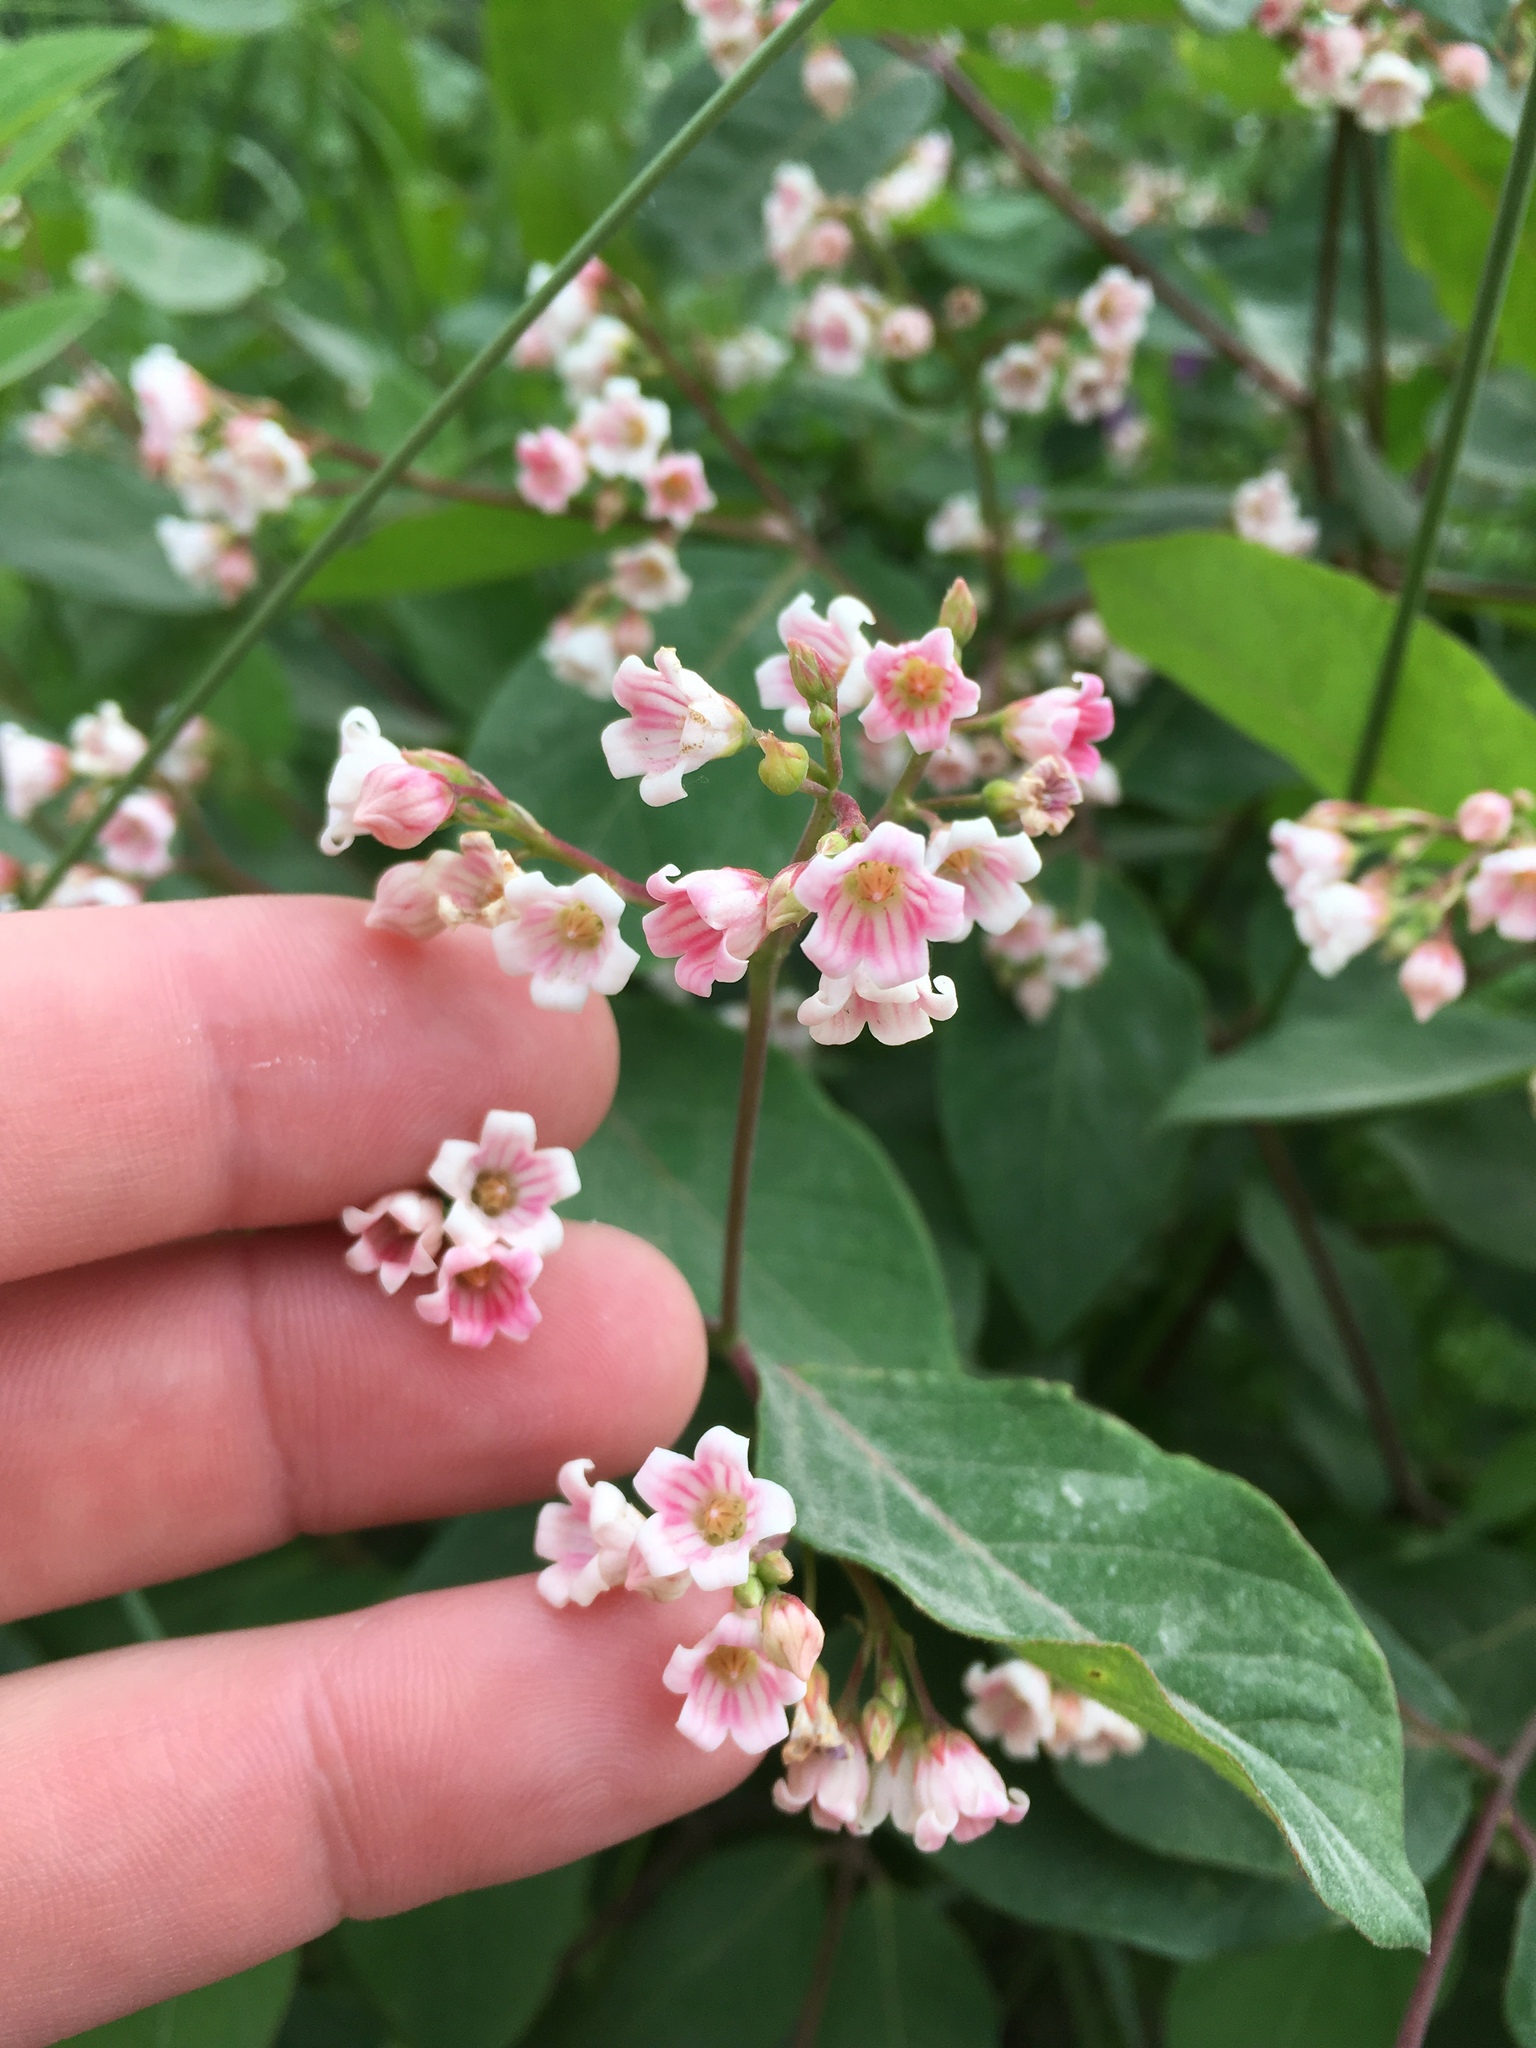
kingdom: Plantae
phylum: Tracheophyta
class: Magnoliopsida
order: Gentianales
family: Apocynaceae
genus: Apocynum
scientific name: Apocynum androsaemifolium
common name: Spreading dogbane
